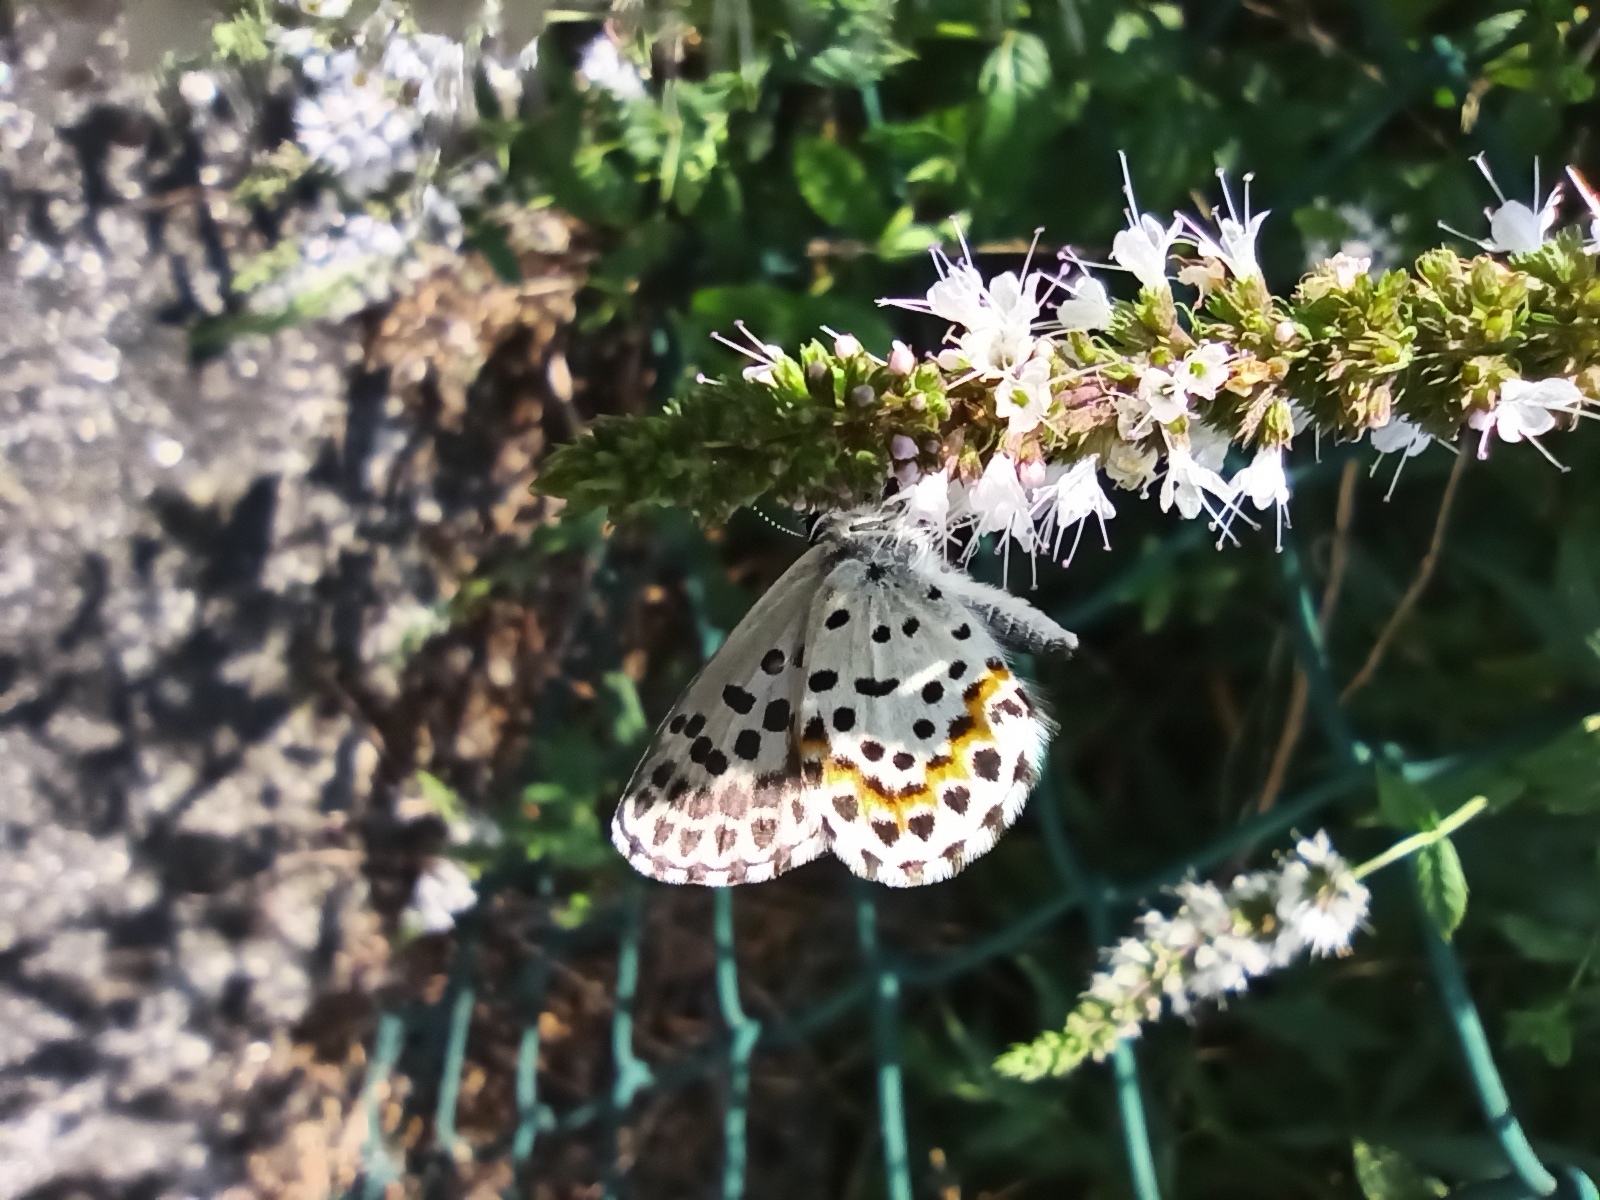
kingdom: Animalia
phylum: Arthropoda
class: Insecta
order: Lepidoptera
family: Lycaenidae
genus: Scolitantides
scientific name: Scolitantides orion
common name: Chequered blue
